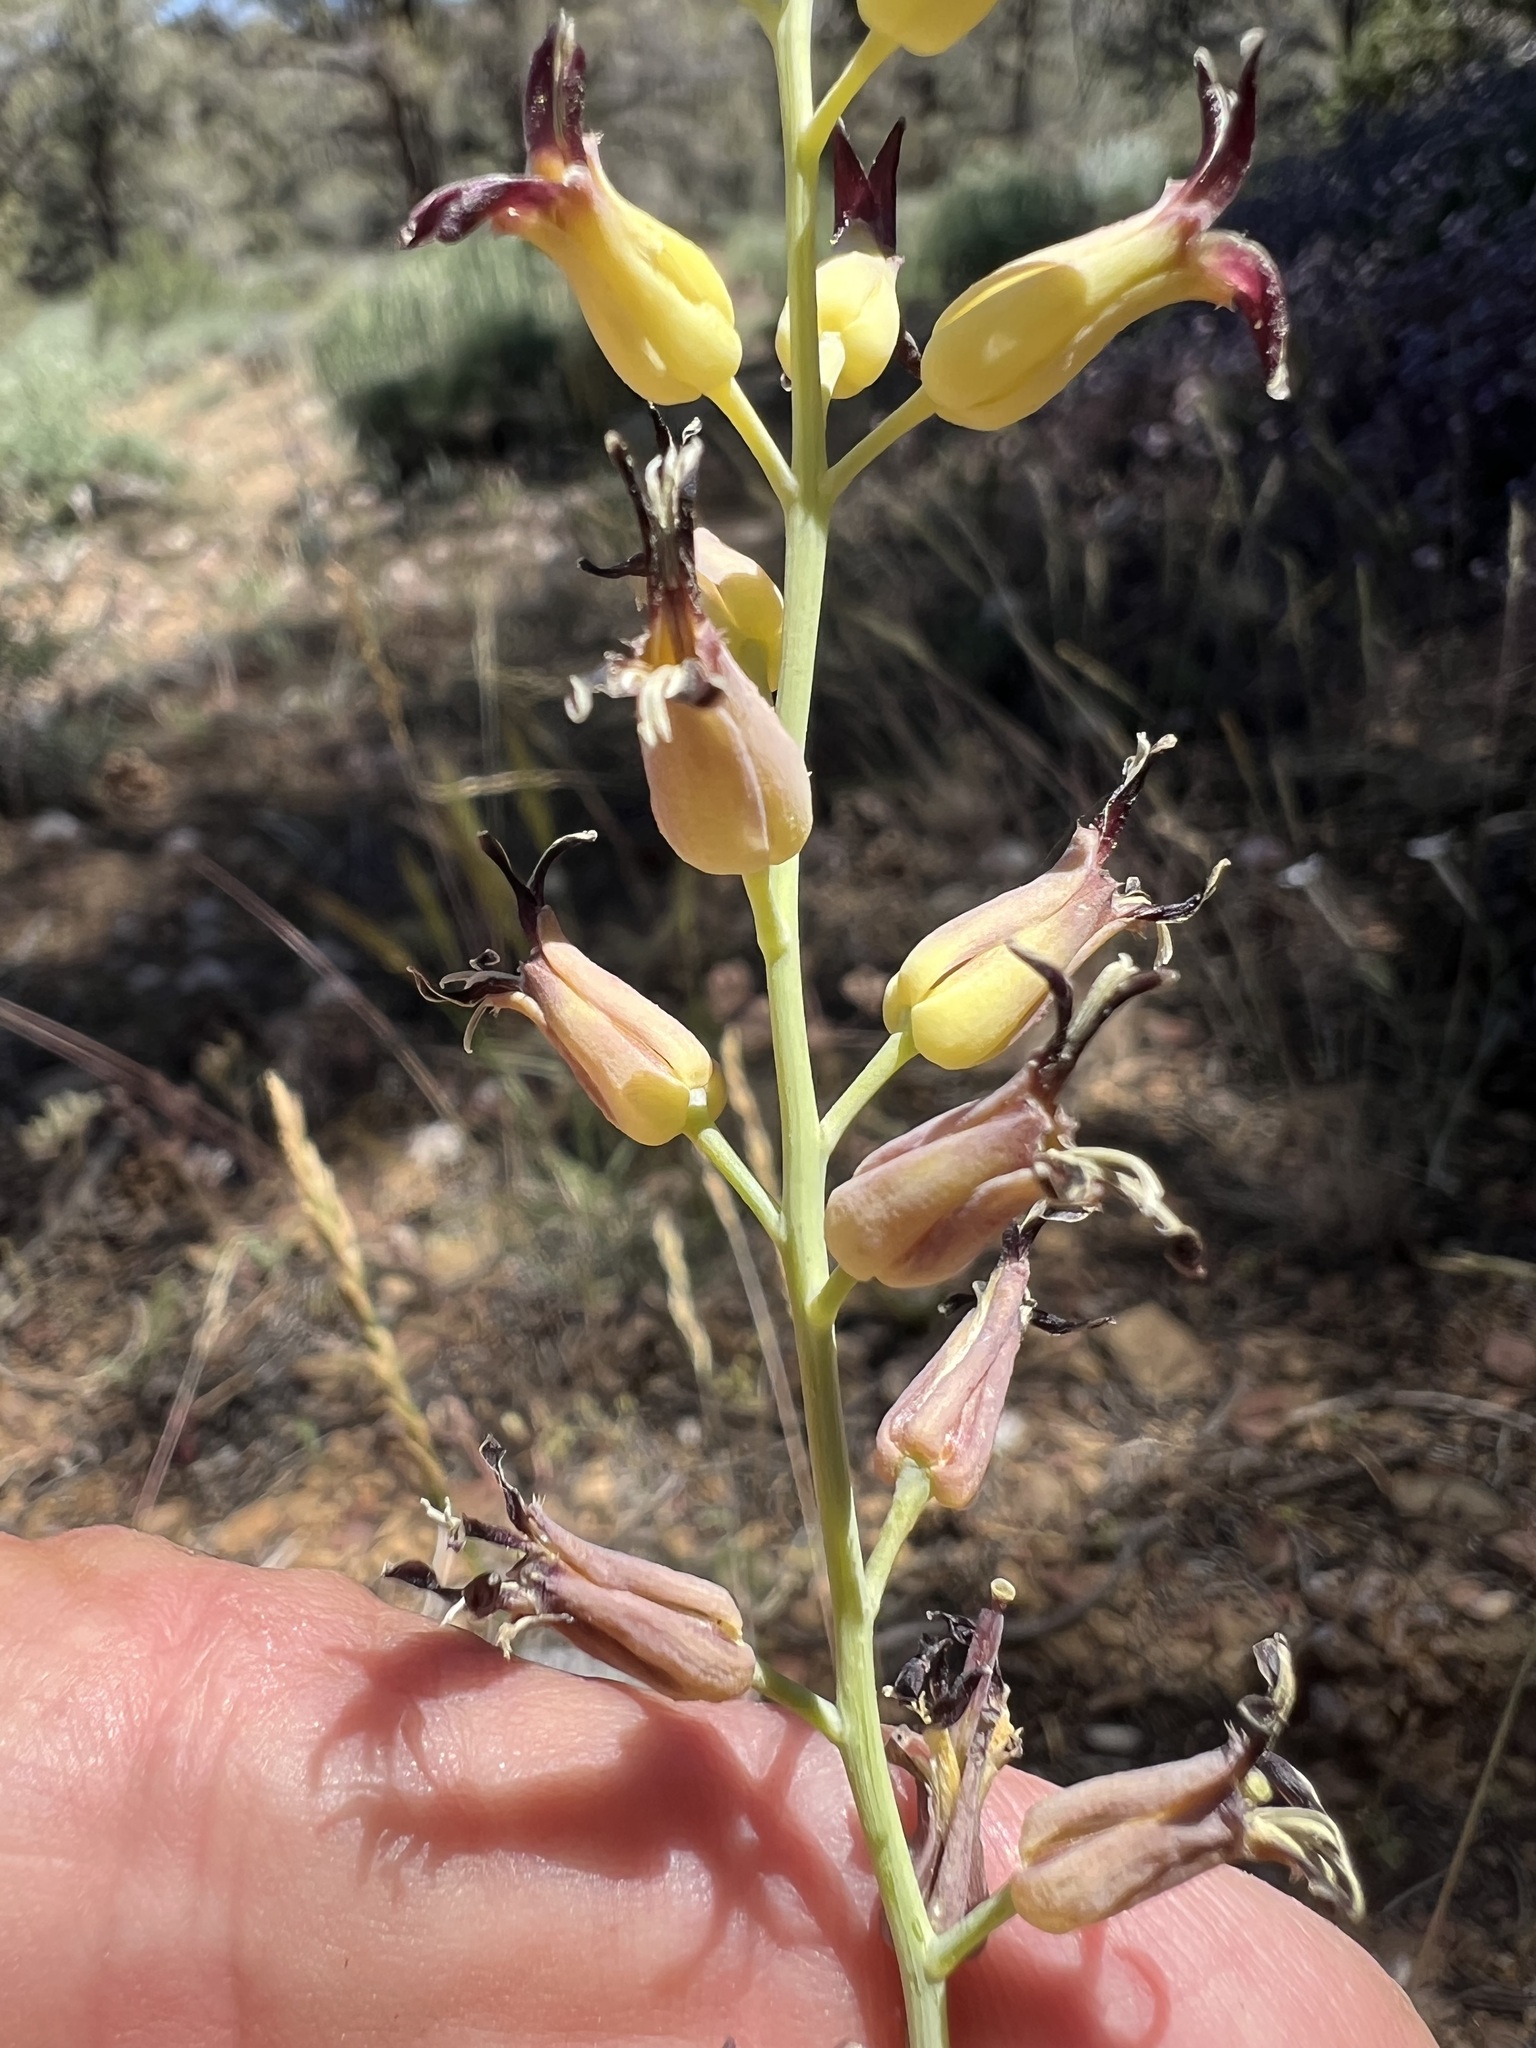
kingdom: Plantae
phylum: Tracheophyta
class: Magnoliopsida
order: Brassicales
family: Brassicaceae
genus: Streptanthus
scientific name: Streptanthus cordatus
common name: Heart-leaf jewel-flower
